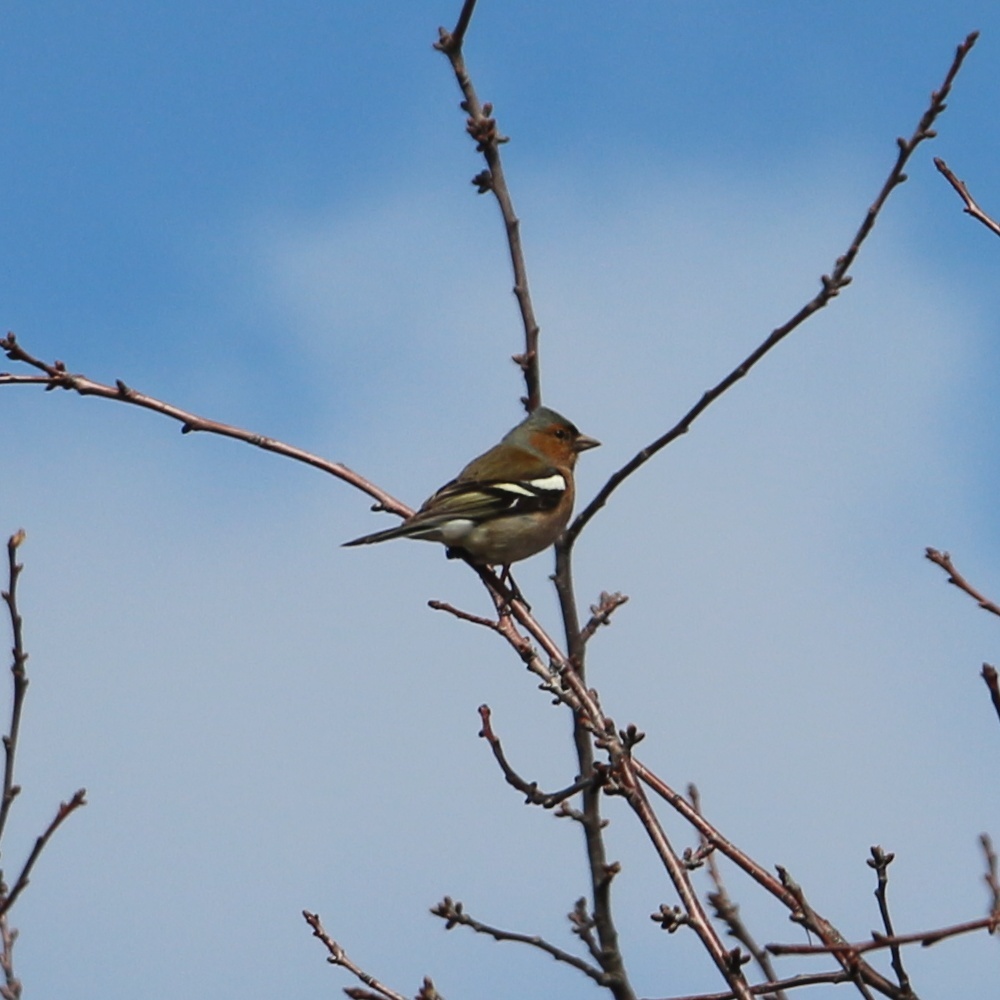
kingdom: Animalia
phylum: Chordata
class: Aves
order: Passeriformes
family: Fringillidae
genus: Fringilla
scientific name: Fringilla coelebs
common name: Common chaffinch
